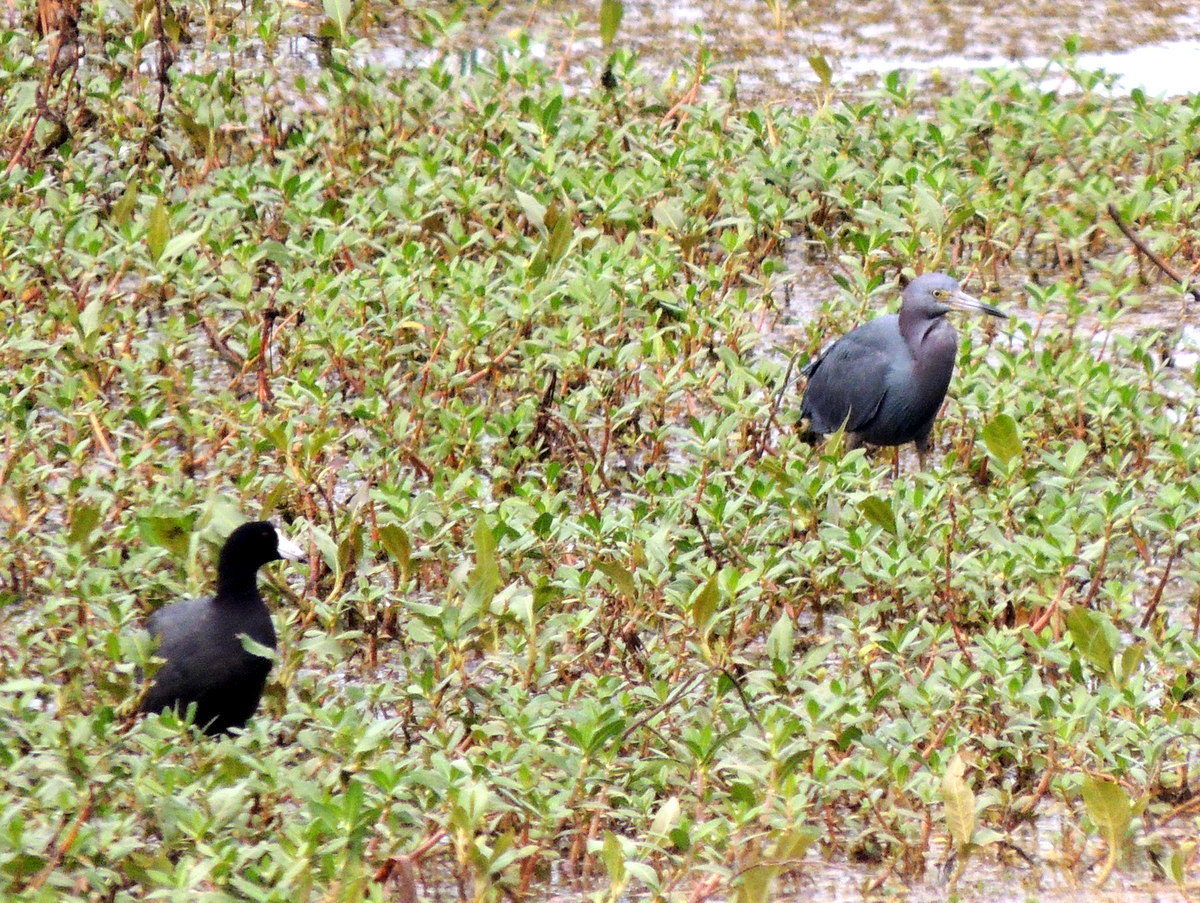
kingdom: Animalia
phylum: Chordata
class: Aves
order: Pelecaniformes
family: Ardeidae
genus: Egretta
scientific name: Egretta caerulea
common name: Little blue heron
